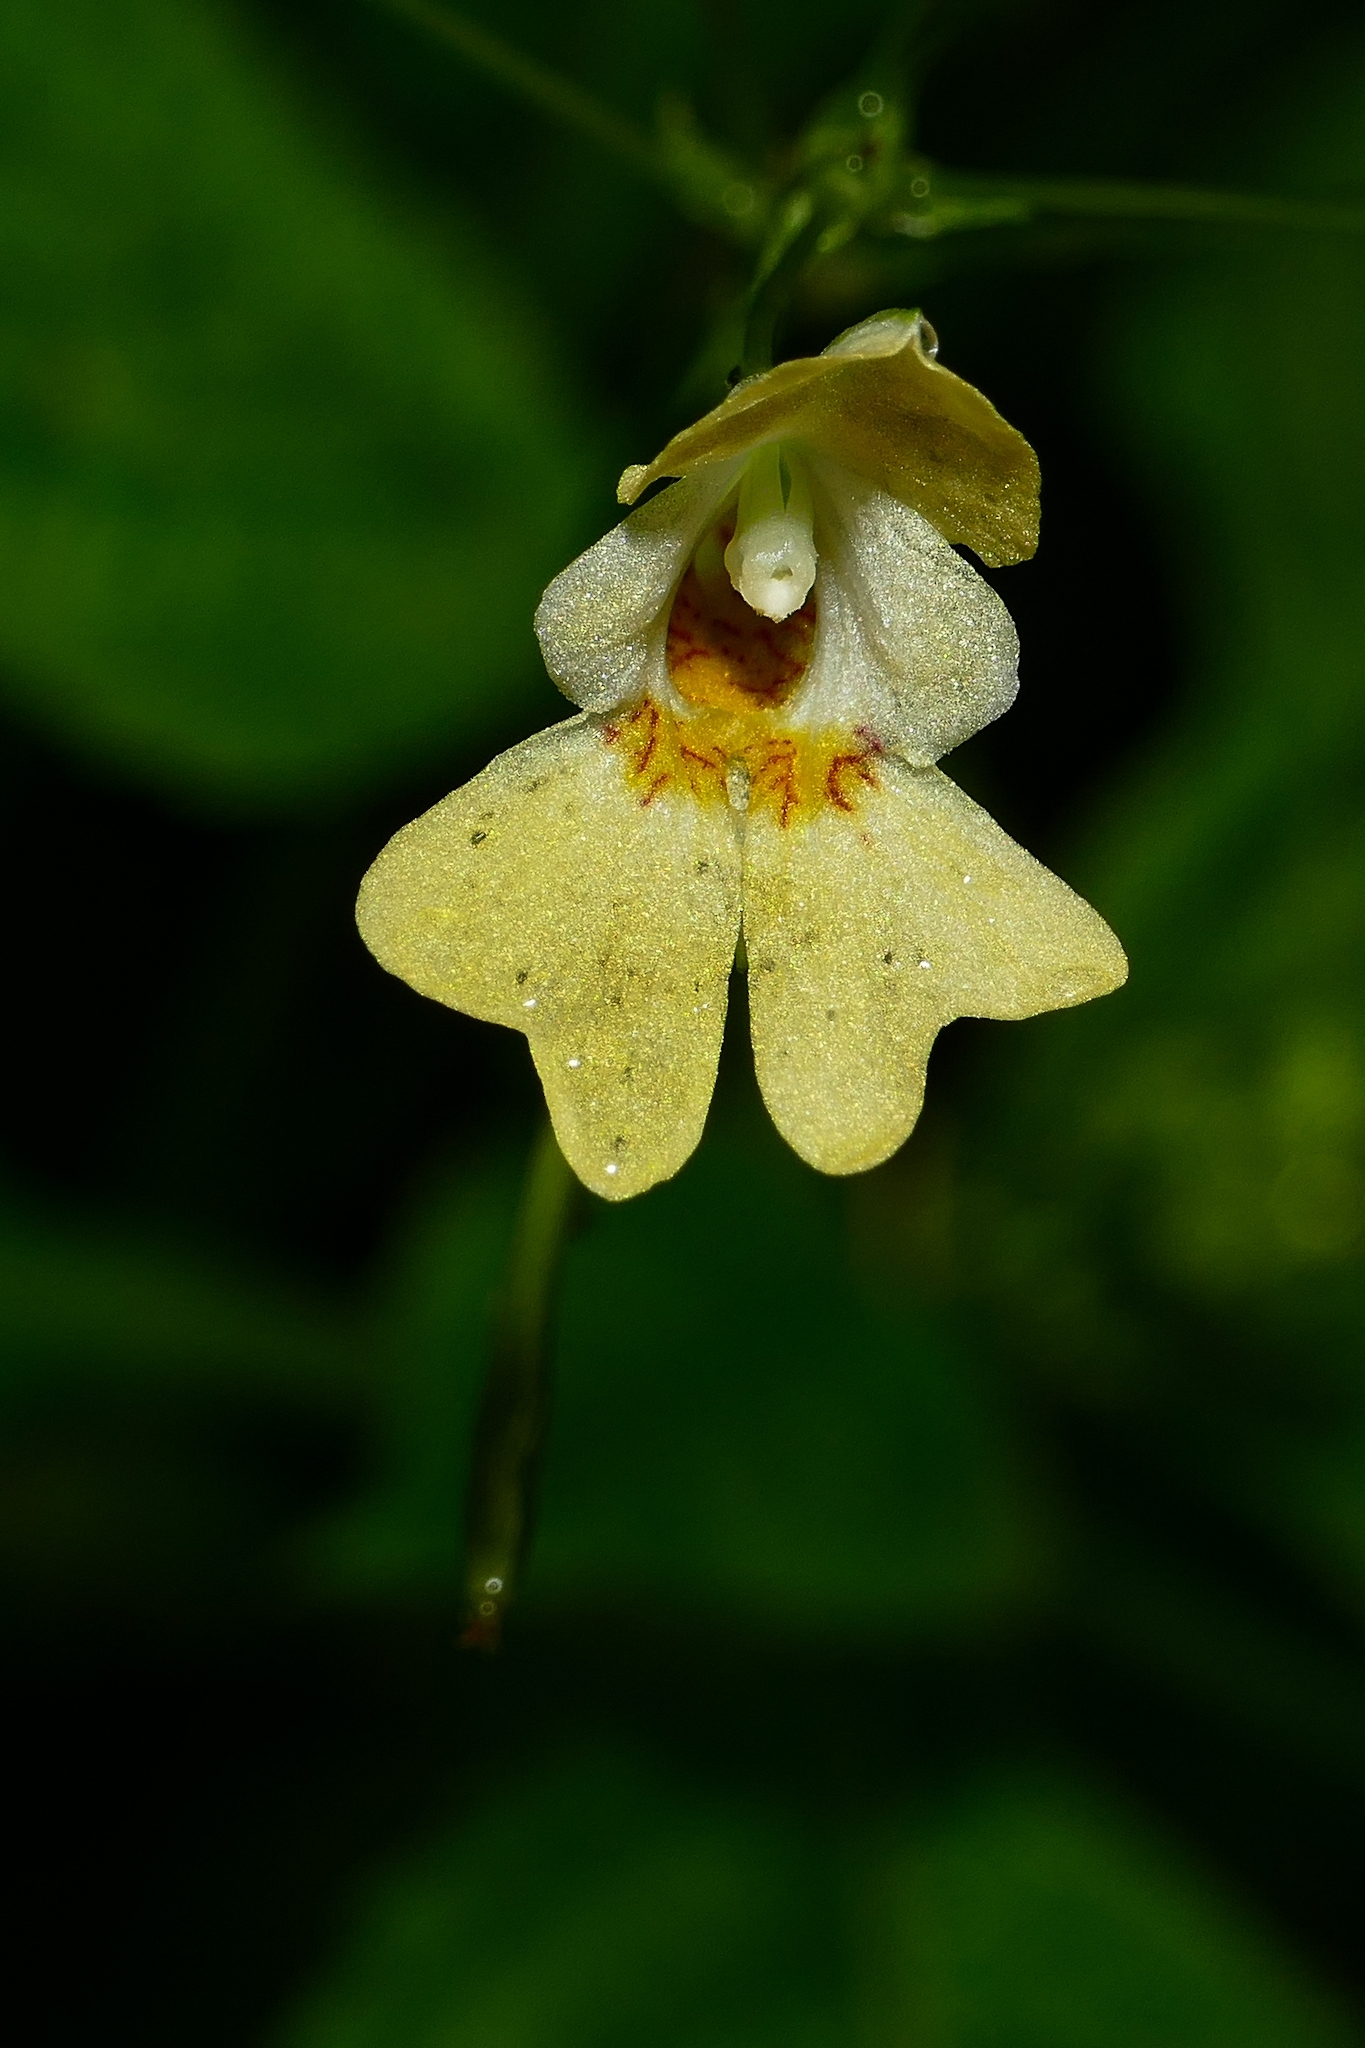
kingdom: Plantae
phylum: Tracheophyta
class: Magnoliopsida
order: Ericales
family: Balsaminaceae
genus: Impatiens
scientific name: Impatiens parviflora
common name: Small balsam
